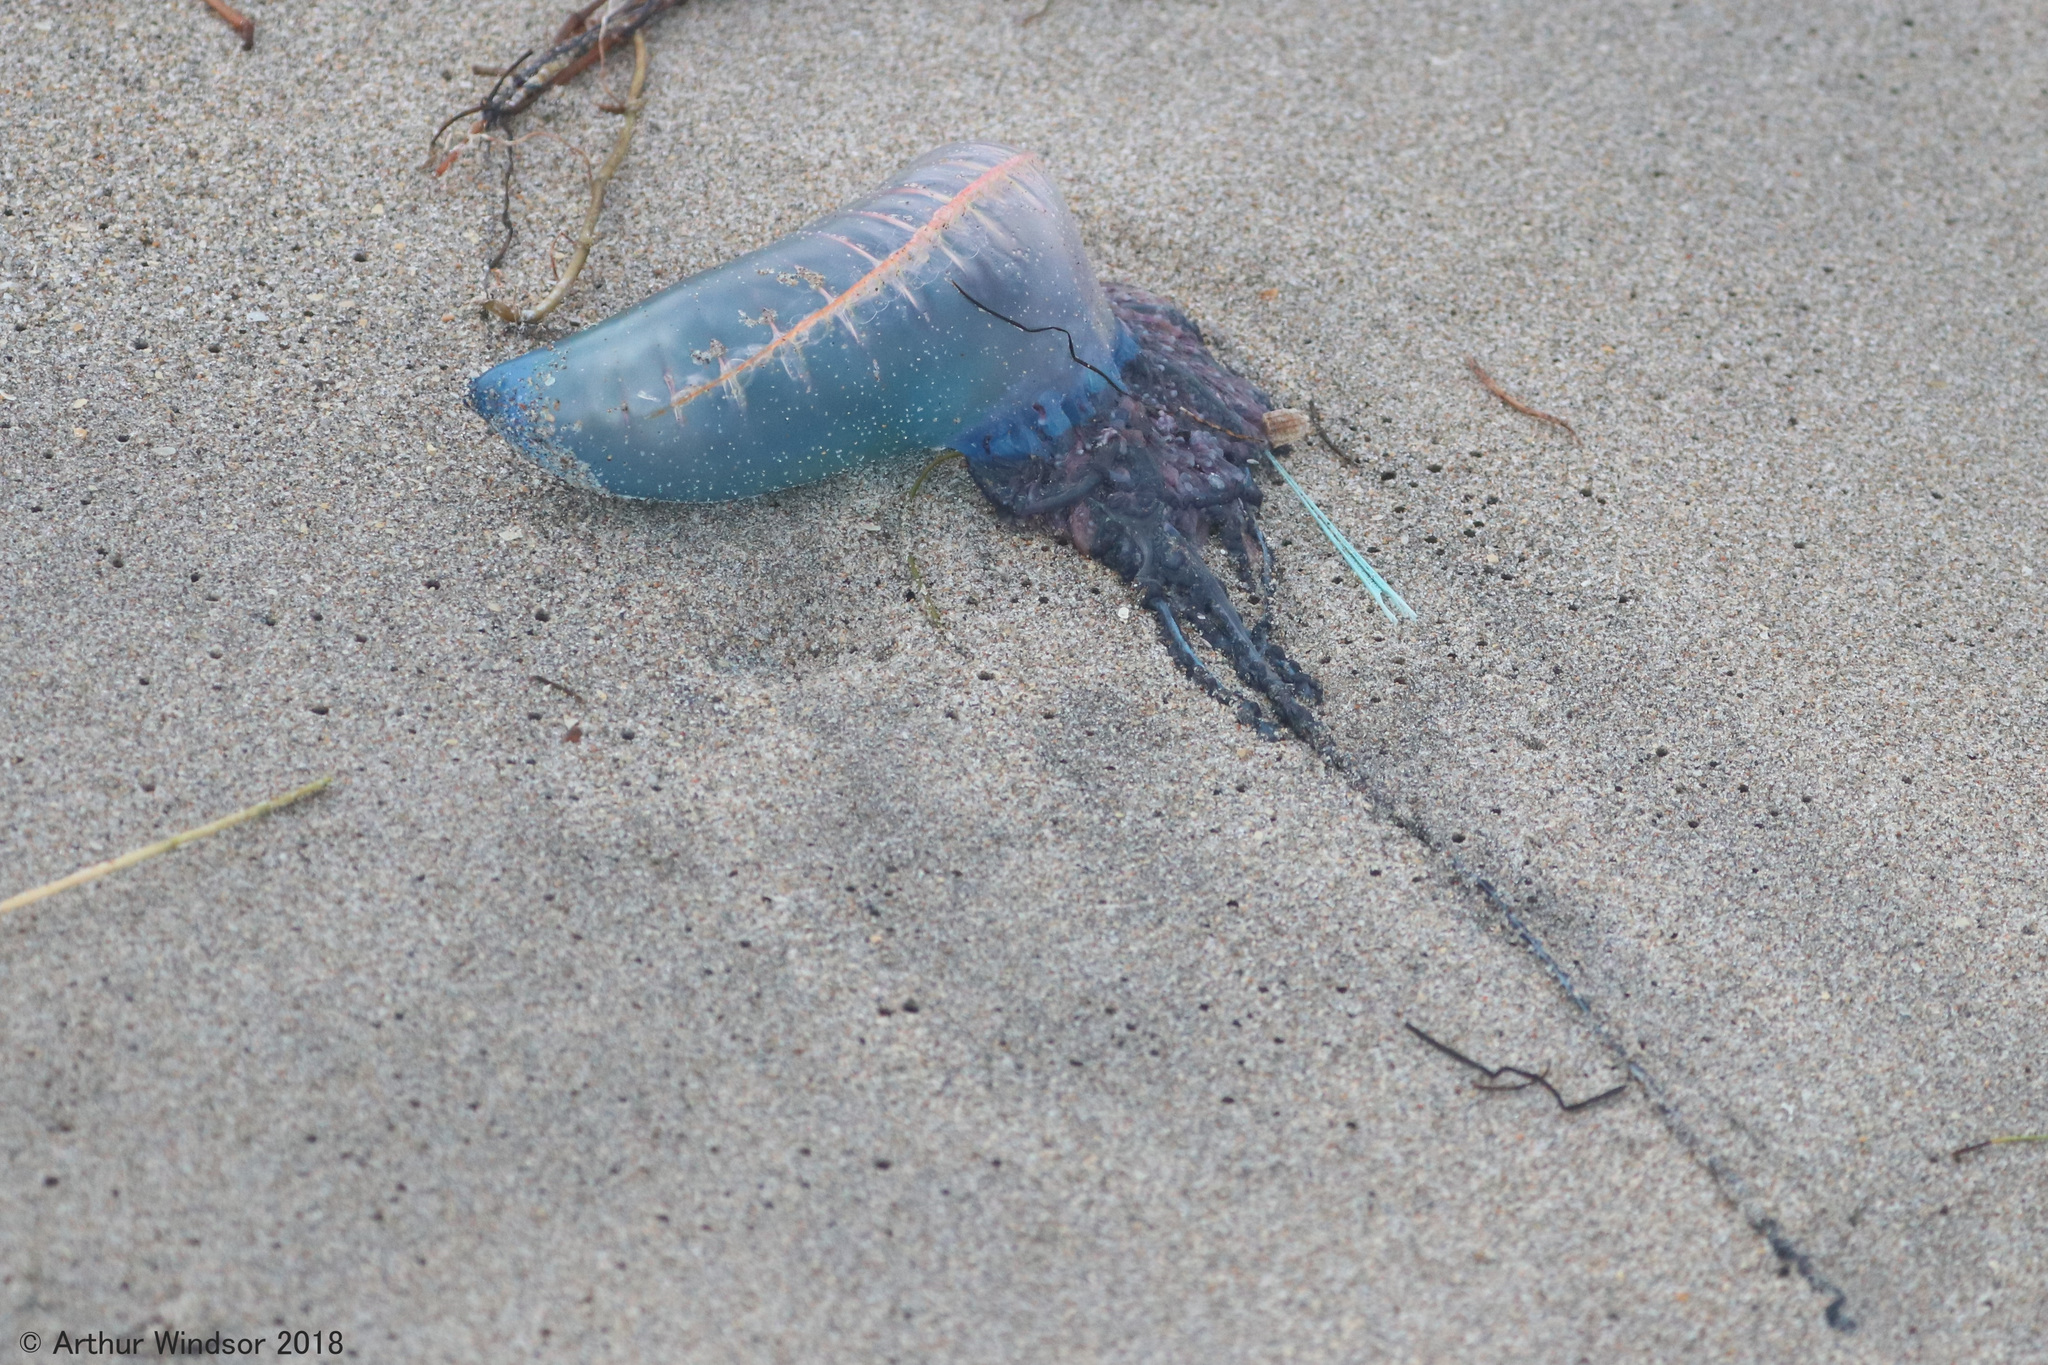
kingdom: Animalia
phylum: Cnidaria
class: Hydrozoa
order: Siphonophorae
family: Physaliidae
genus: Physalia
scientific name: Physalia physalis
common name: Portuguese man-of-war
